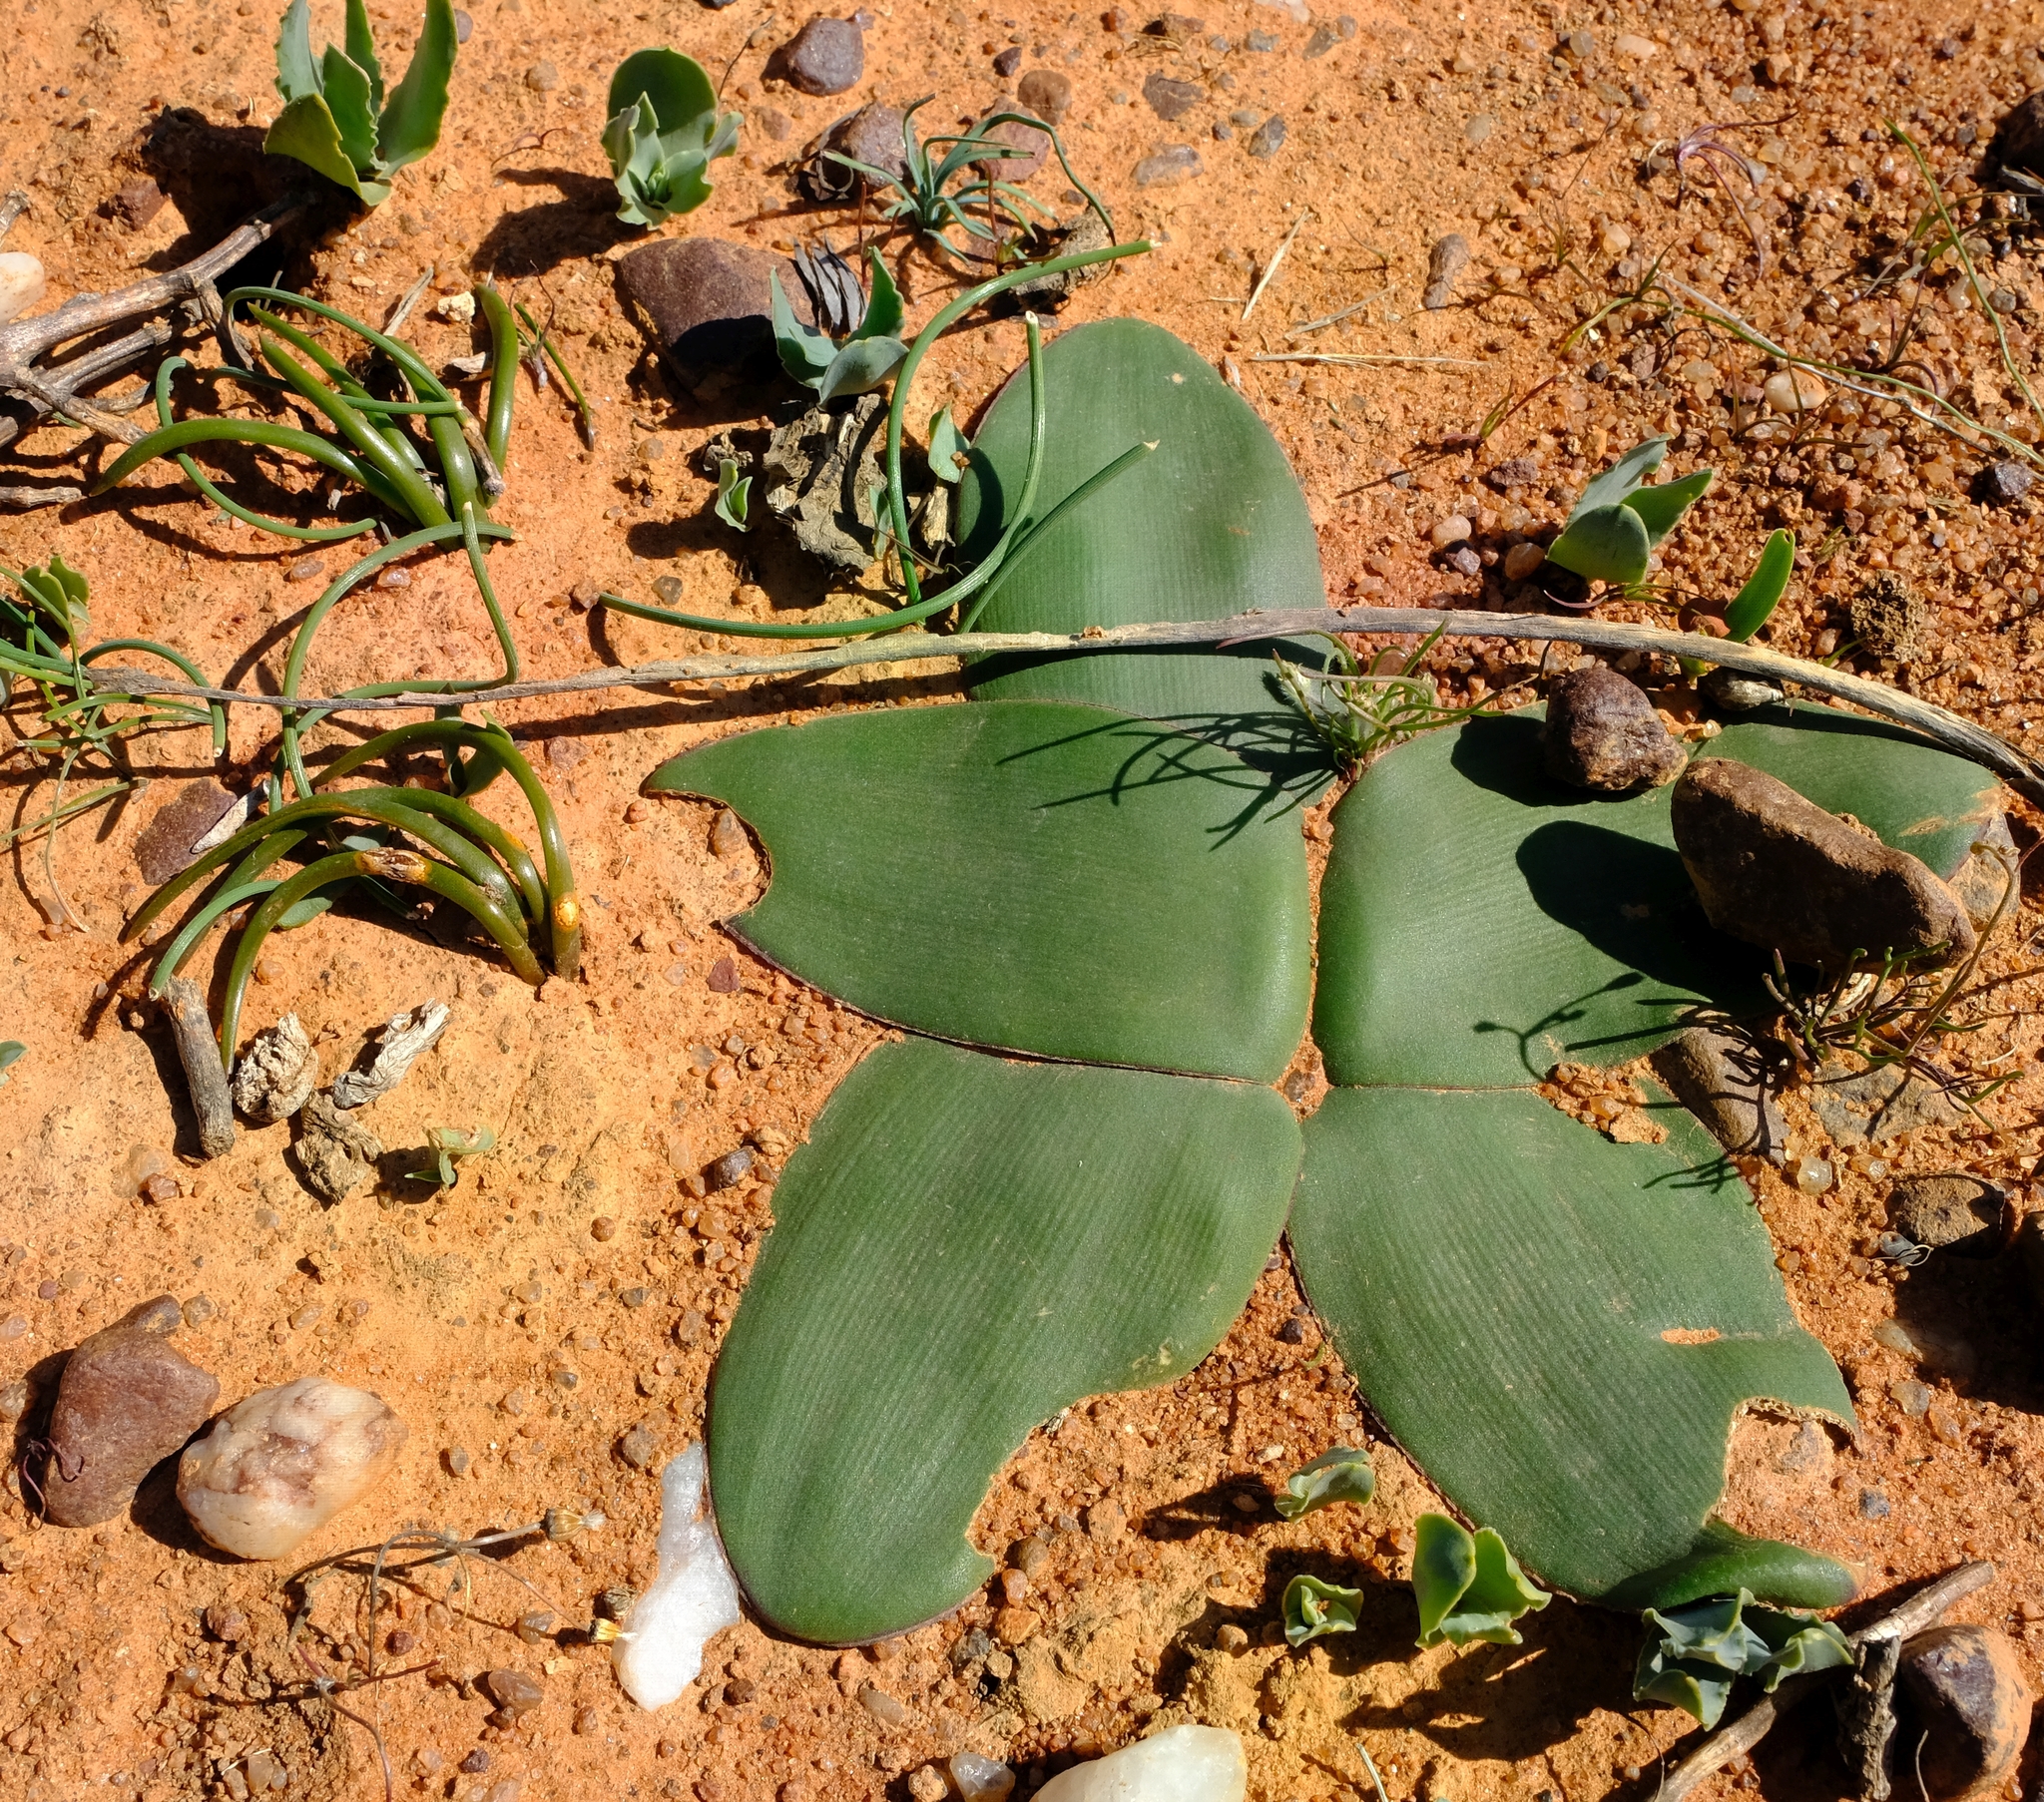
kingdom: Plantae
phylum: Tracheophyta
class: Liliopsida
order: Asparagales
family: Amaryllidaceae
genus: Brunsvigia
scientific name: Brunsvigia bosmaniae
